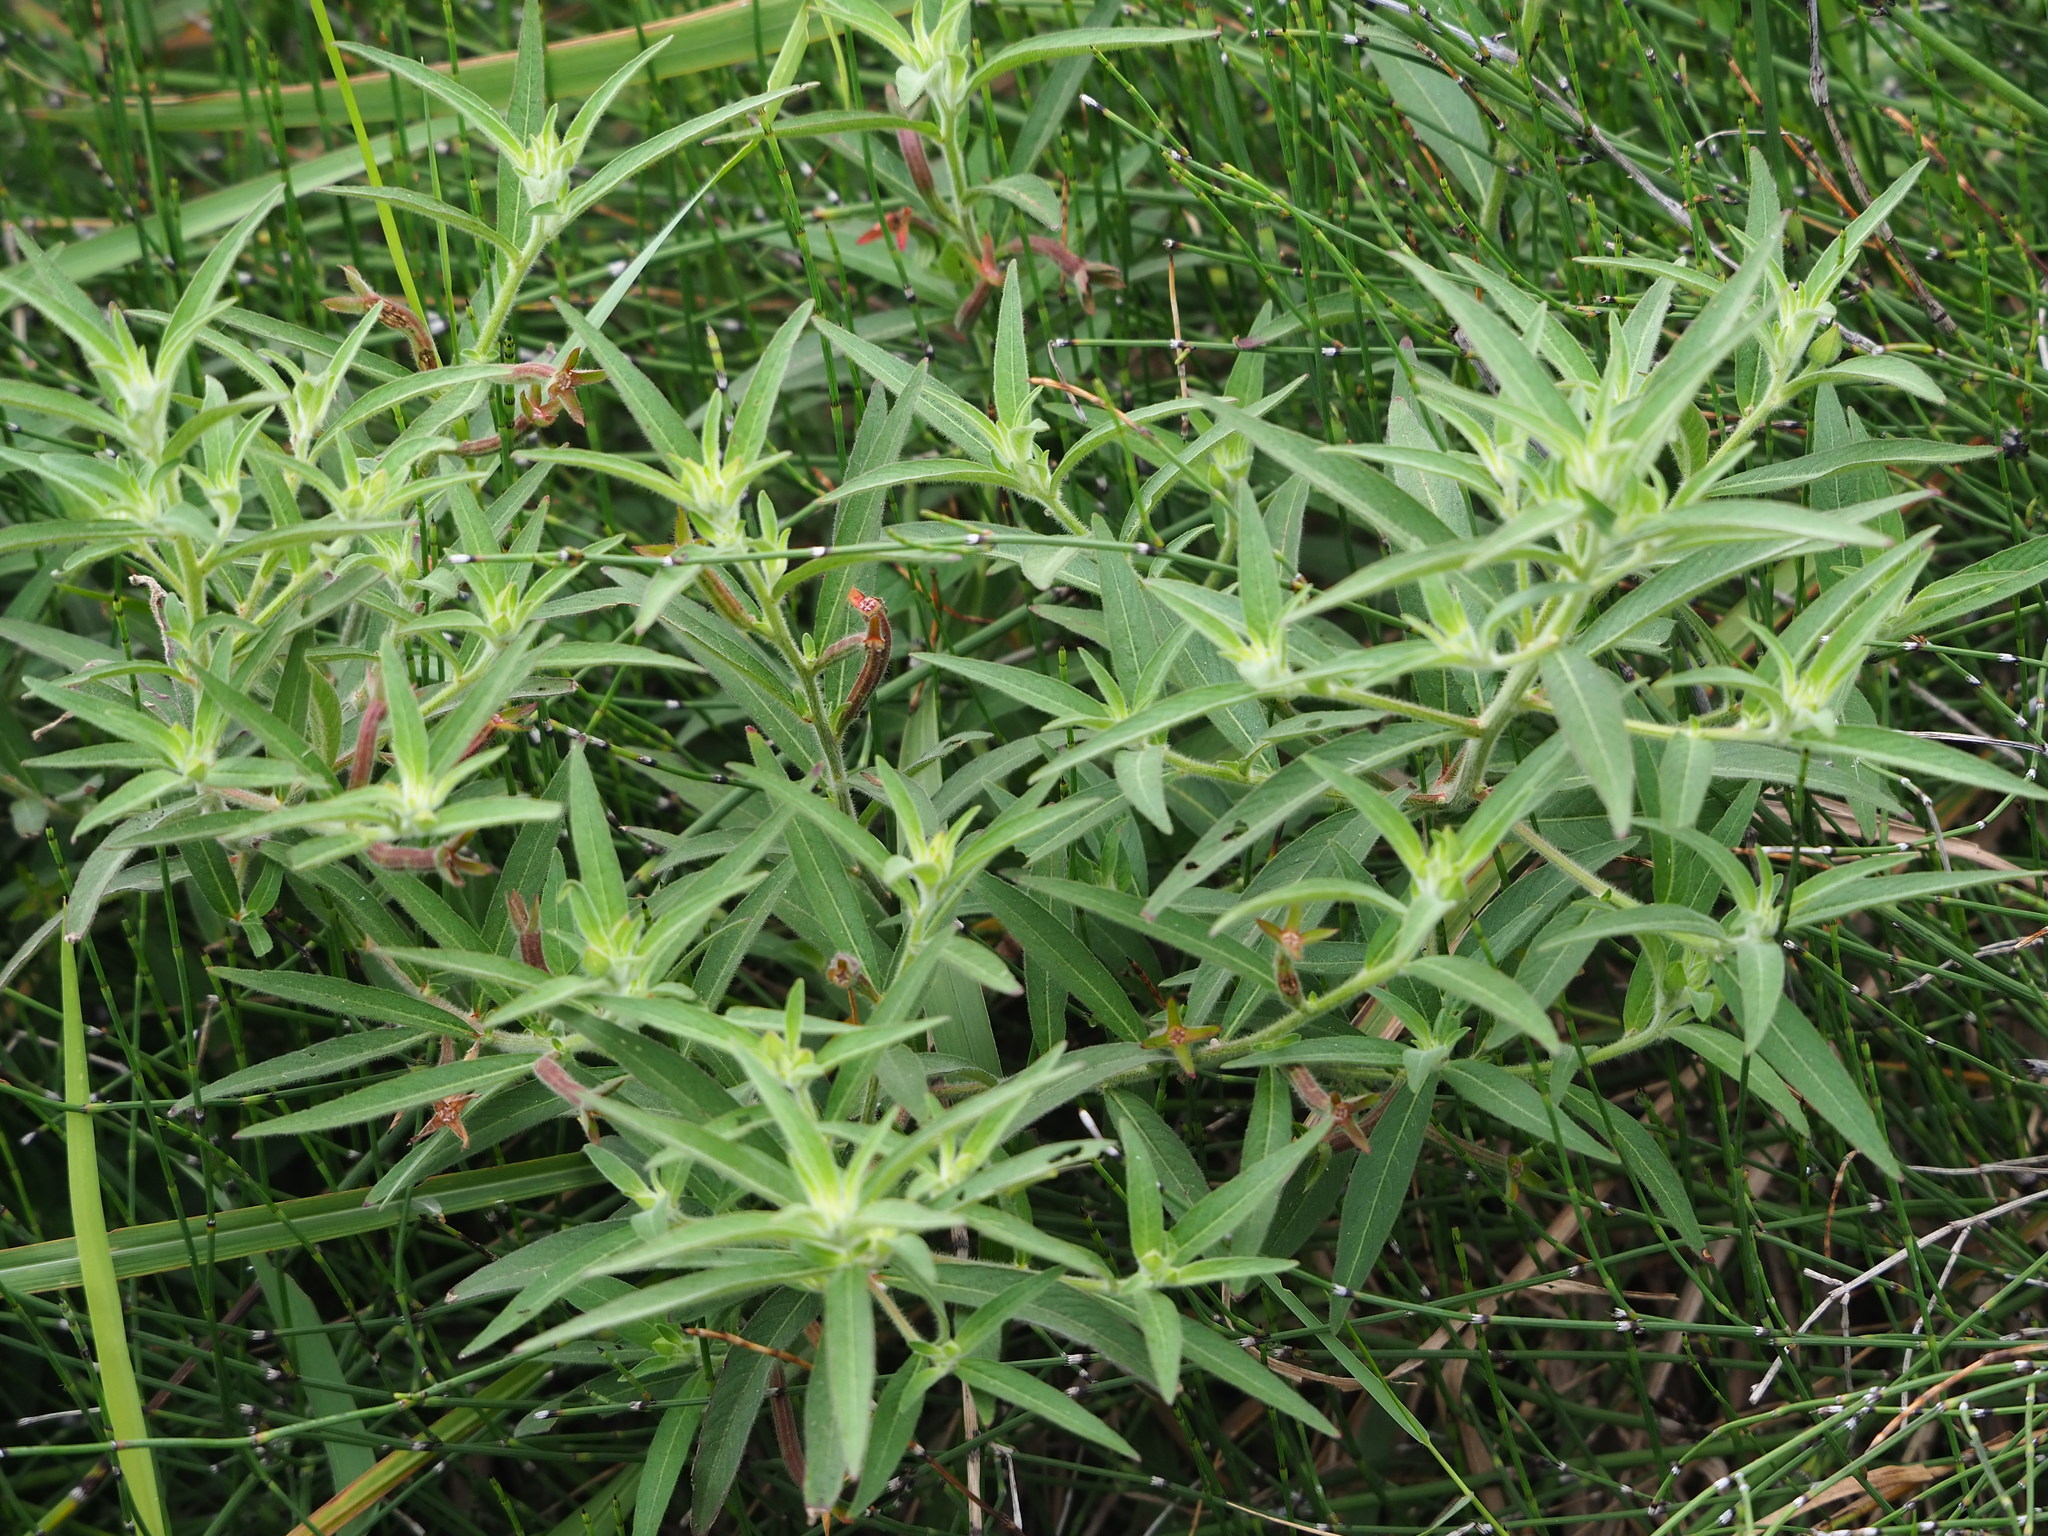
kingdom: Plantae
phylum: Tracheophyta
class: Magnoliopsida
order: Myrtales
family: Onagraceae
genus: Ludwigia
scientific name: Ludwigia octovalvis
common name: Water-primrose
